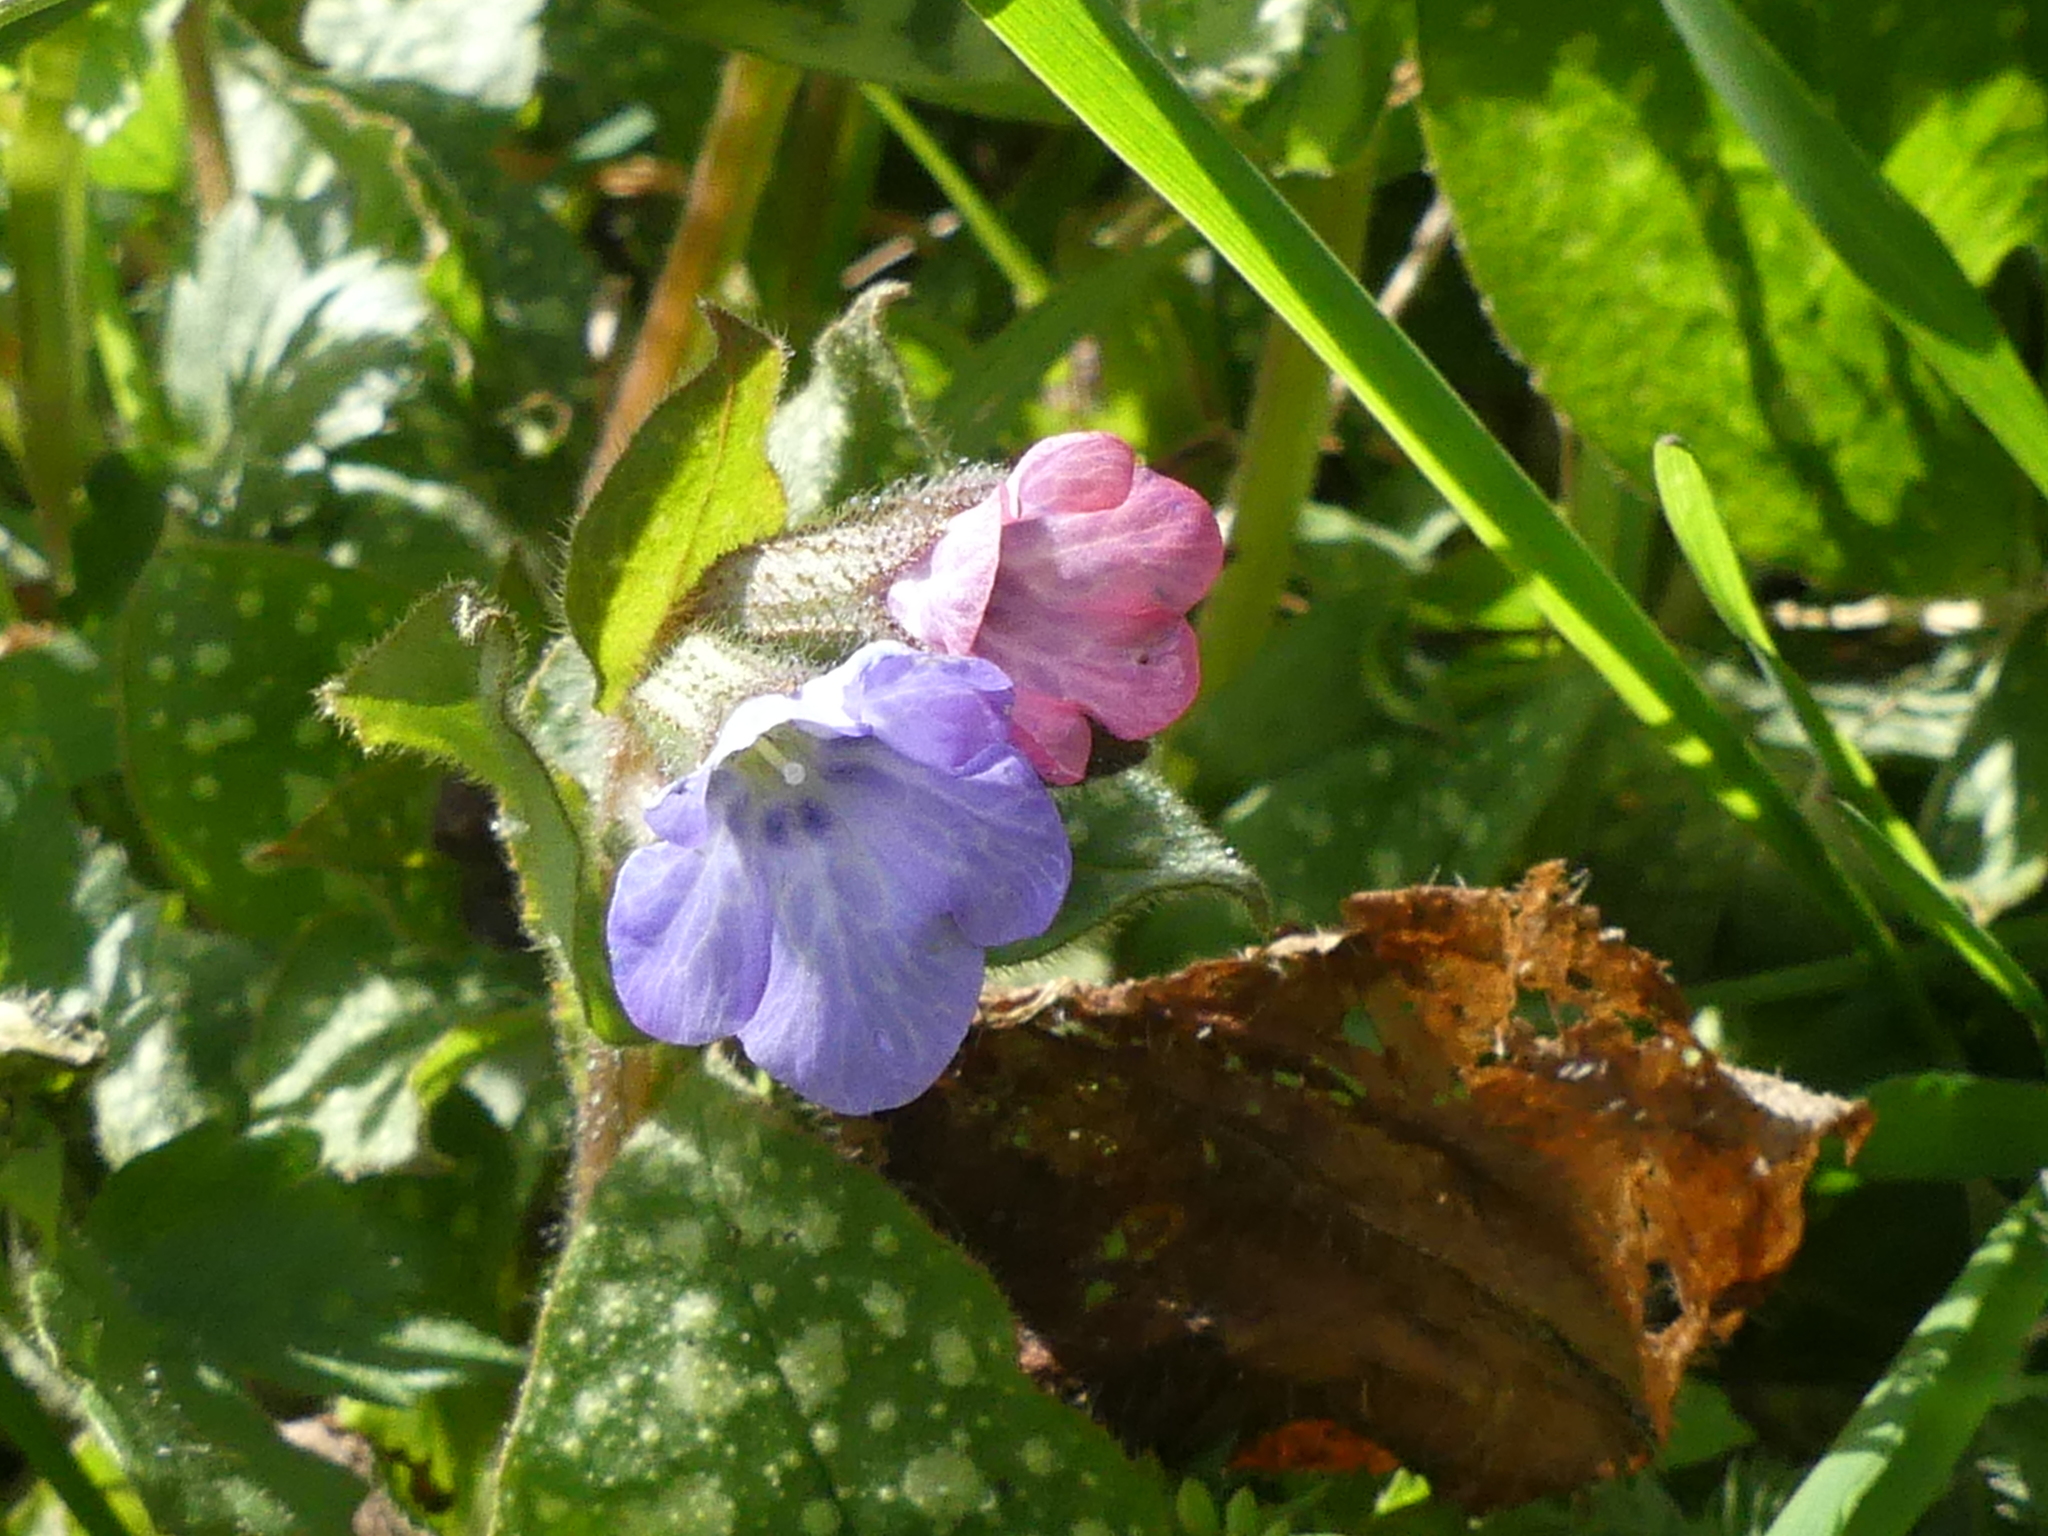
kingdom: Plantae
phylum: Tracheophyta
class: Magnoliopsida
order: Boraginales
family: Boraginaceae
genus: Pulmonaria
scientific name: Pulmonaria officinalis
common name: Lungwort
